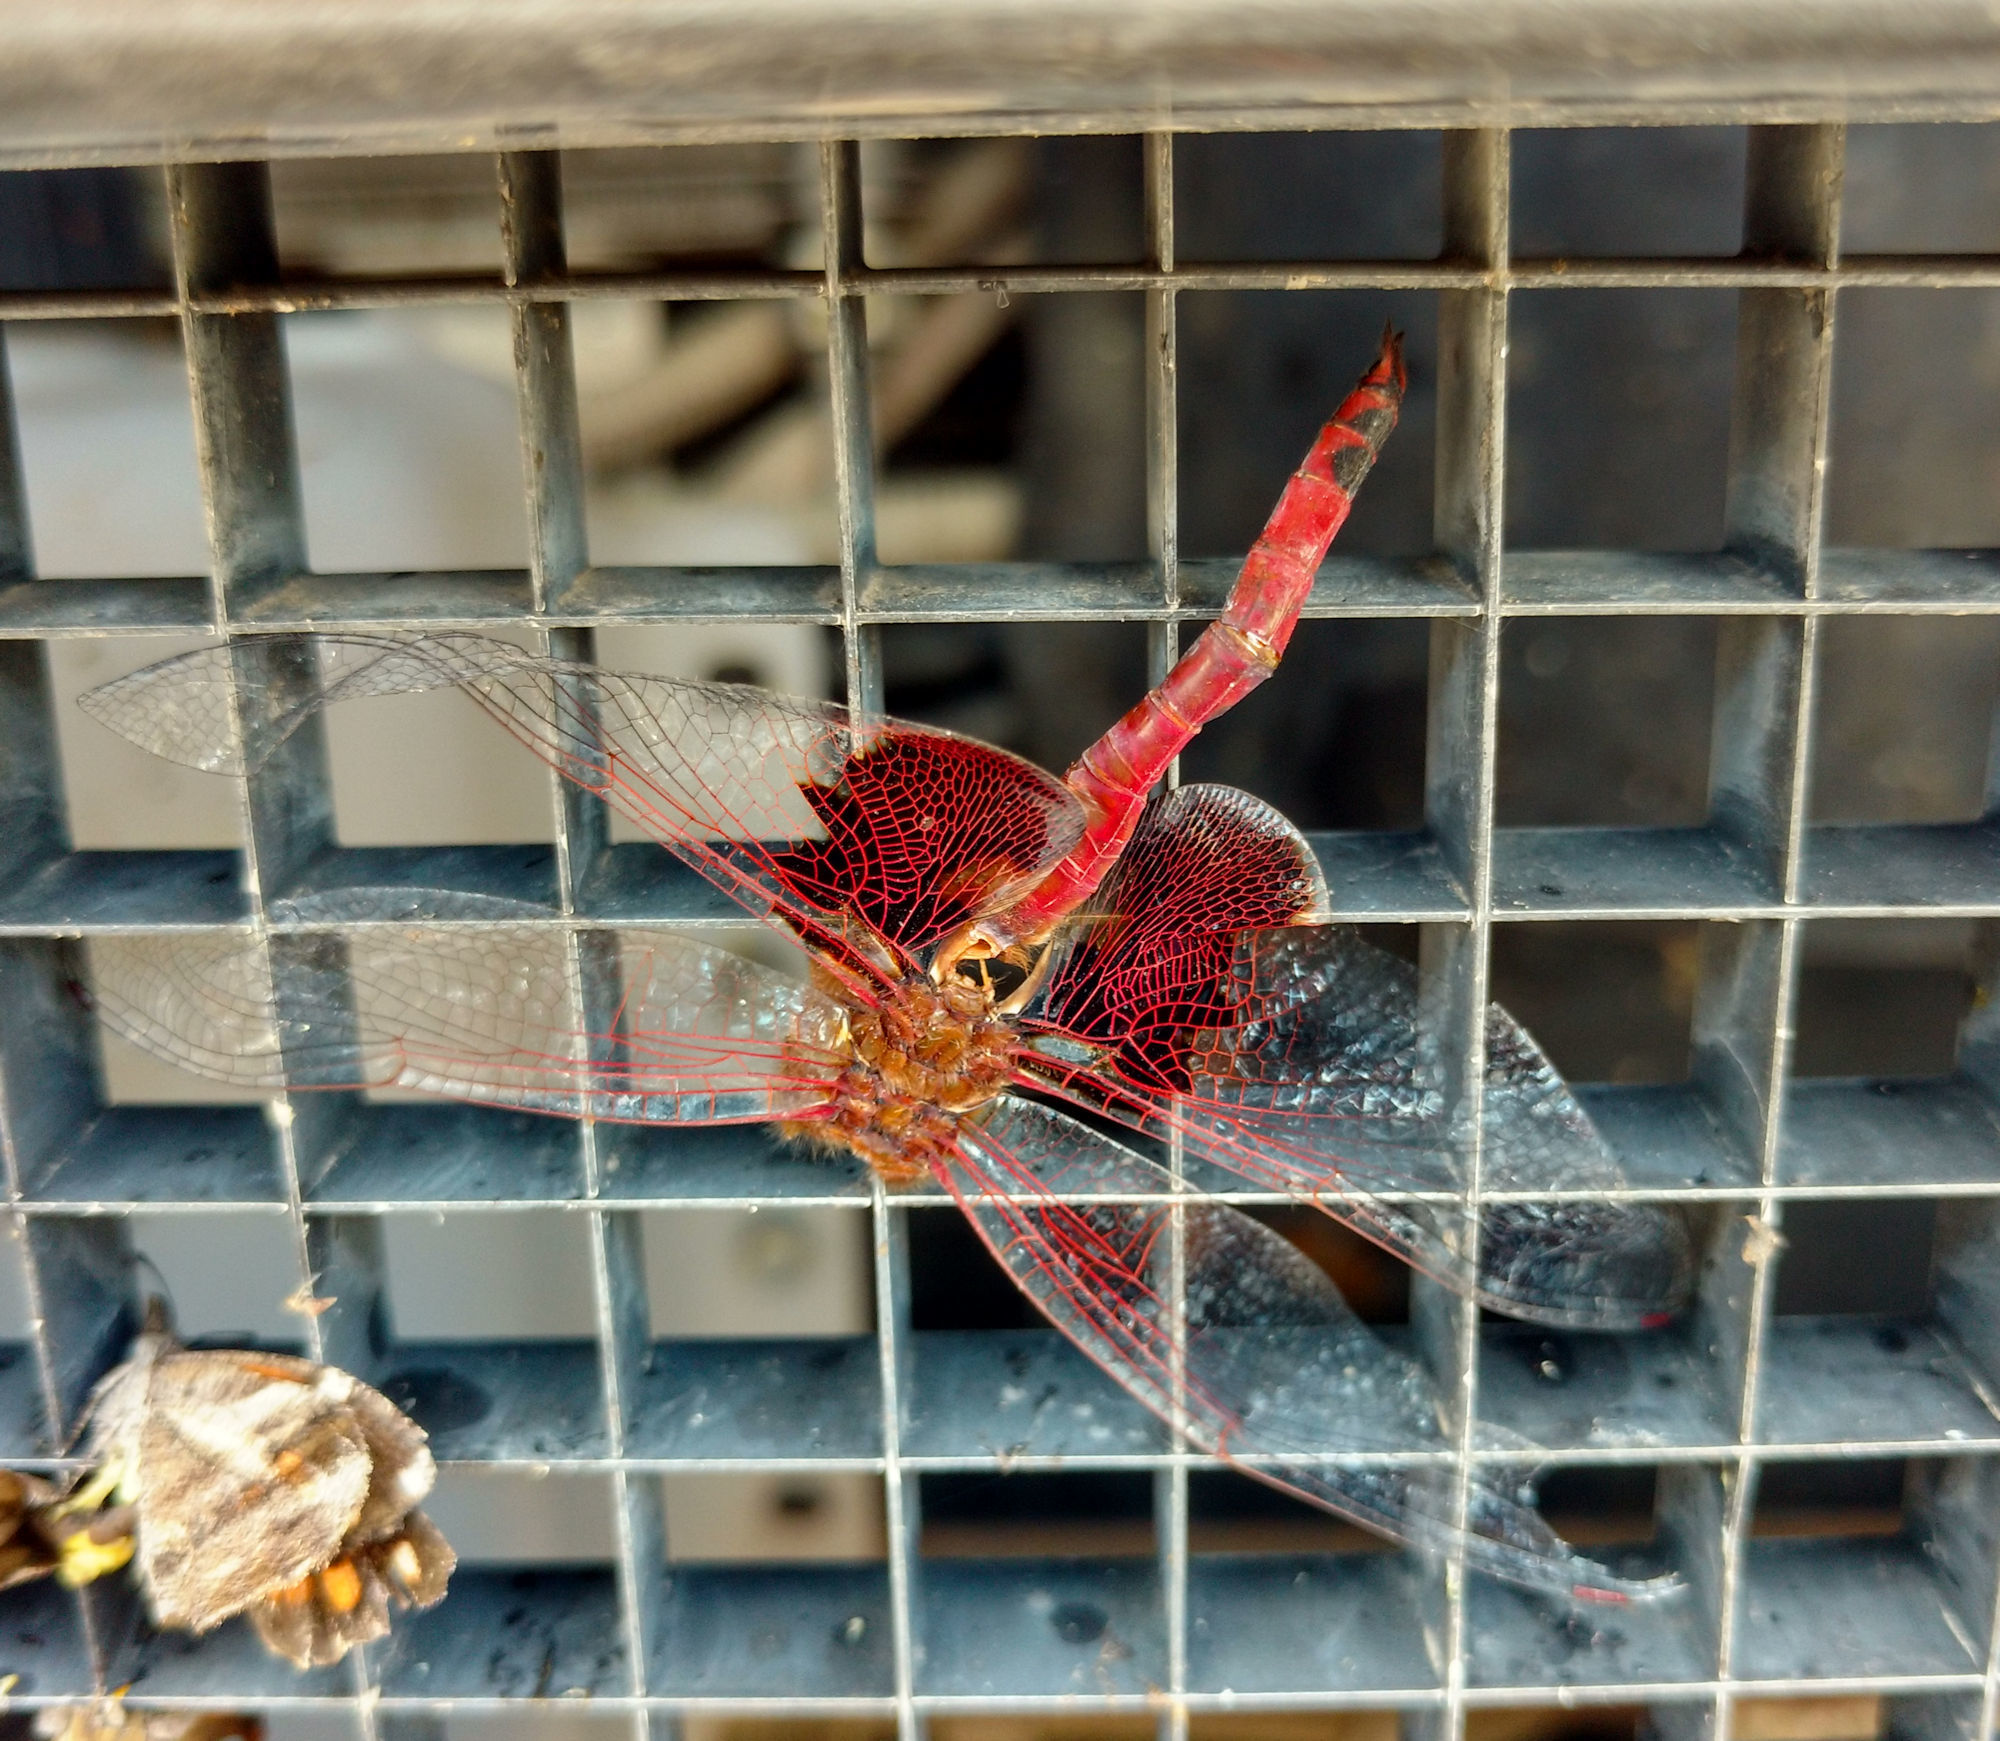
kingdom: Animalia
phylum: Arthropoda
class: Insecta
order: Odonata
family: Libellulidae
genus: Tramea
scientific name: Tramea onusta
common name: Red saddlebags
